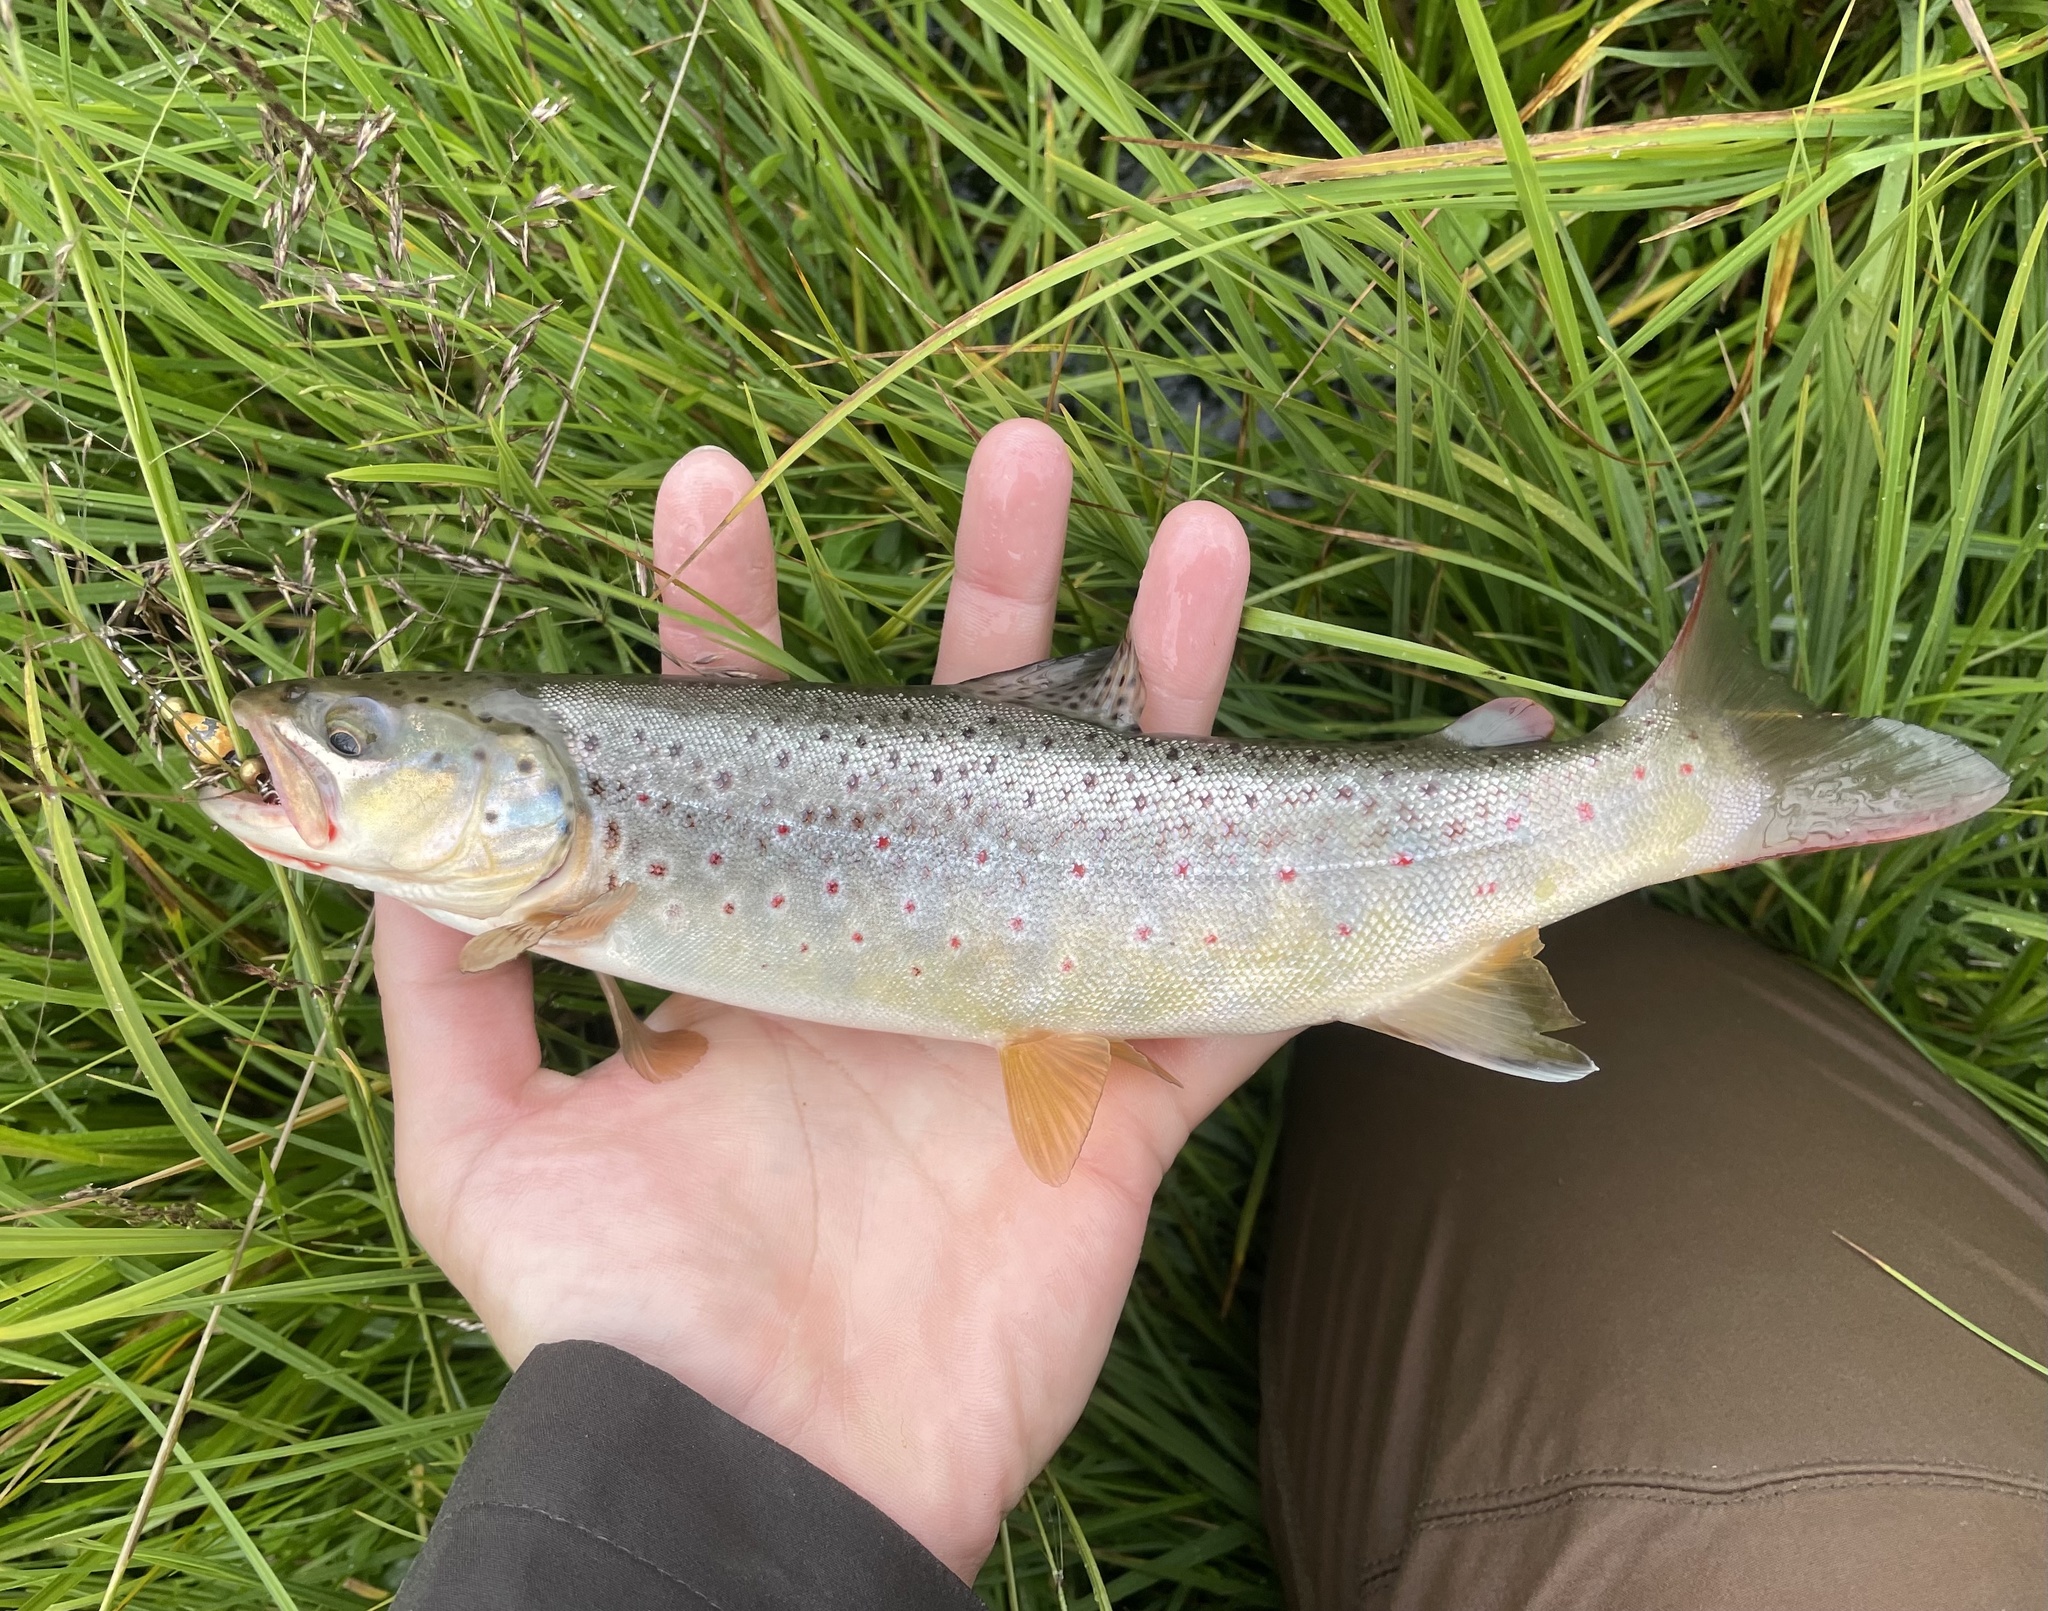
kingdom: Animalia
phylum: Chordata
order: Salmoniformes
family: Salmonidae
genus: Salmo
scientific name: Salmo trutta
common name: Brown trout
